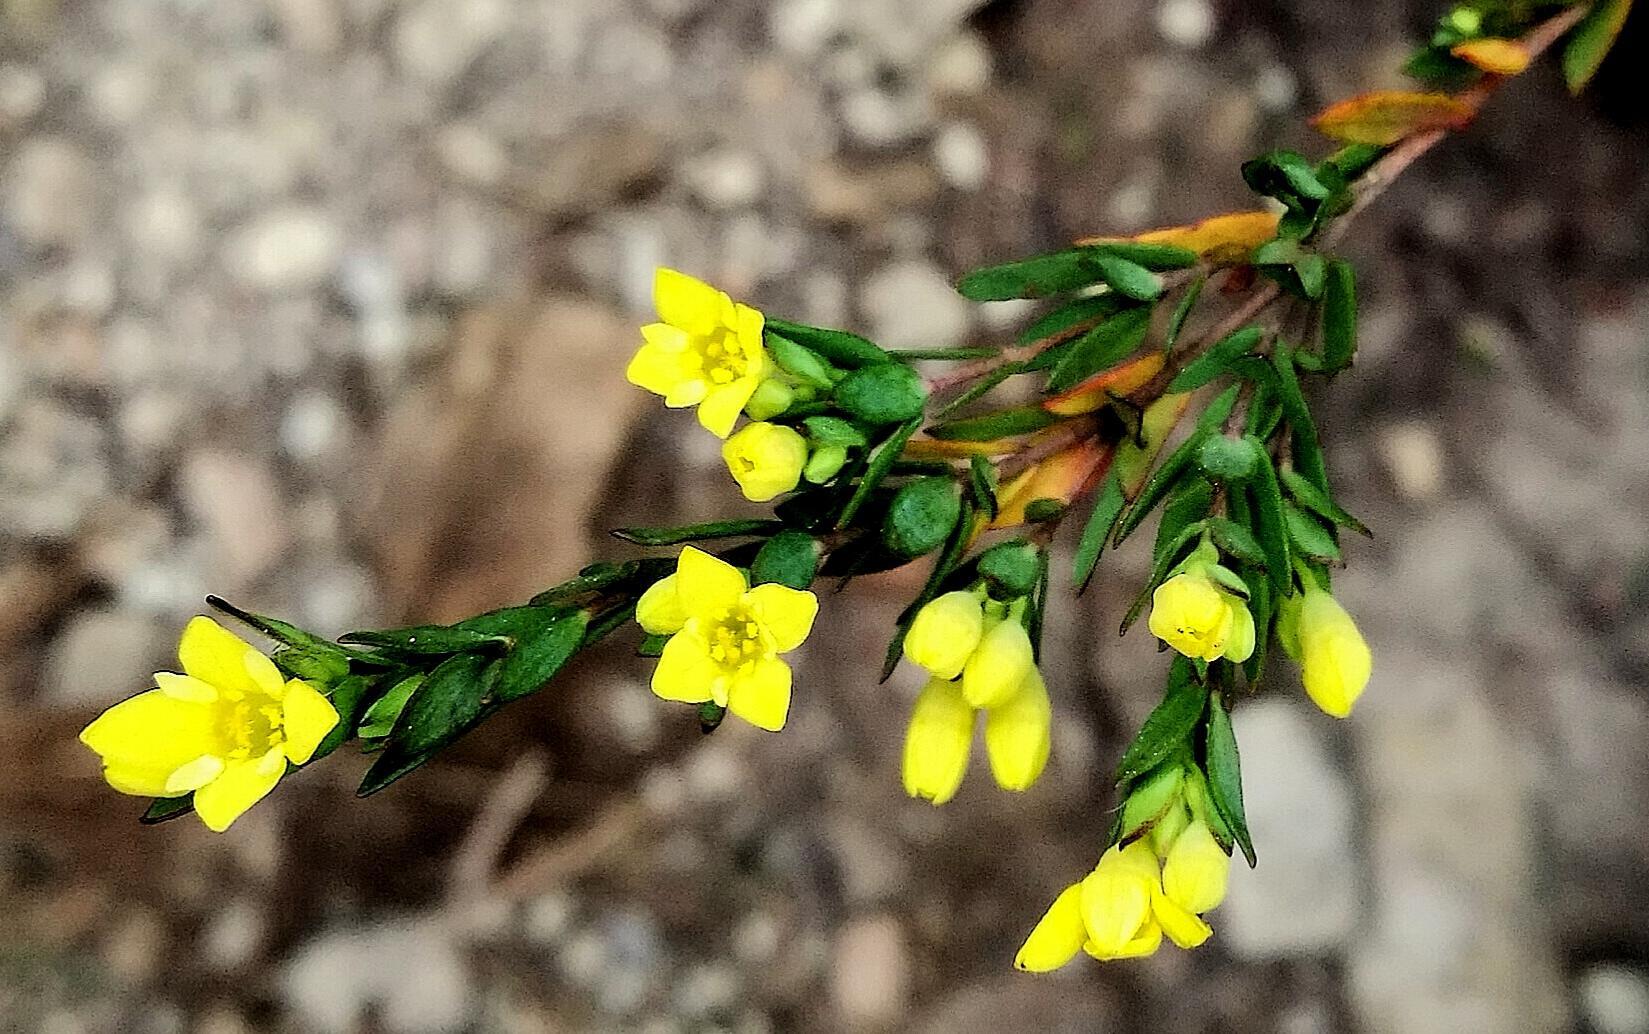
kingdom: Plantae
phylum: Tracheophyta
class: Magnoliopsida
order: Malvales
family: Thymelaeaceae
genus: Gnidia
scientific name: Gnidia juniperifolia
